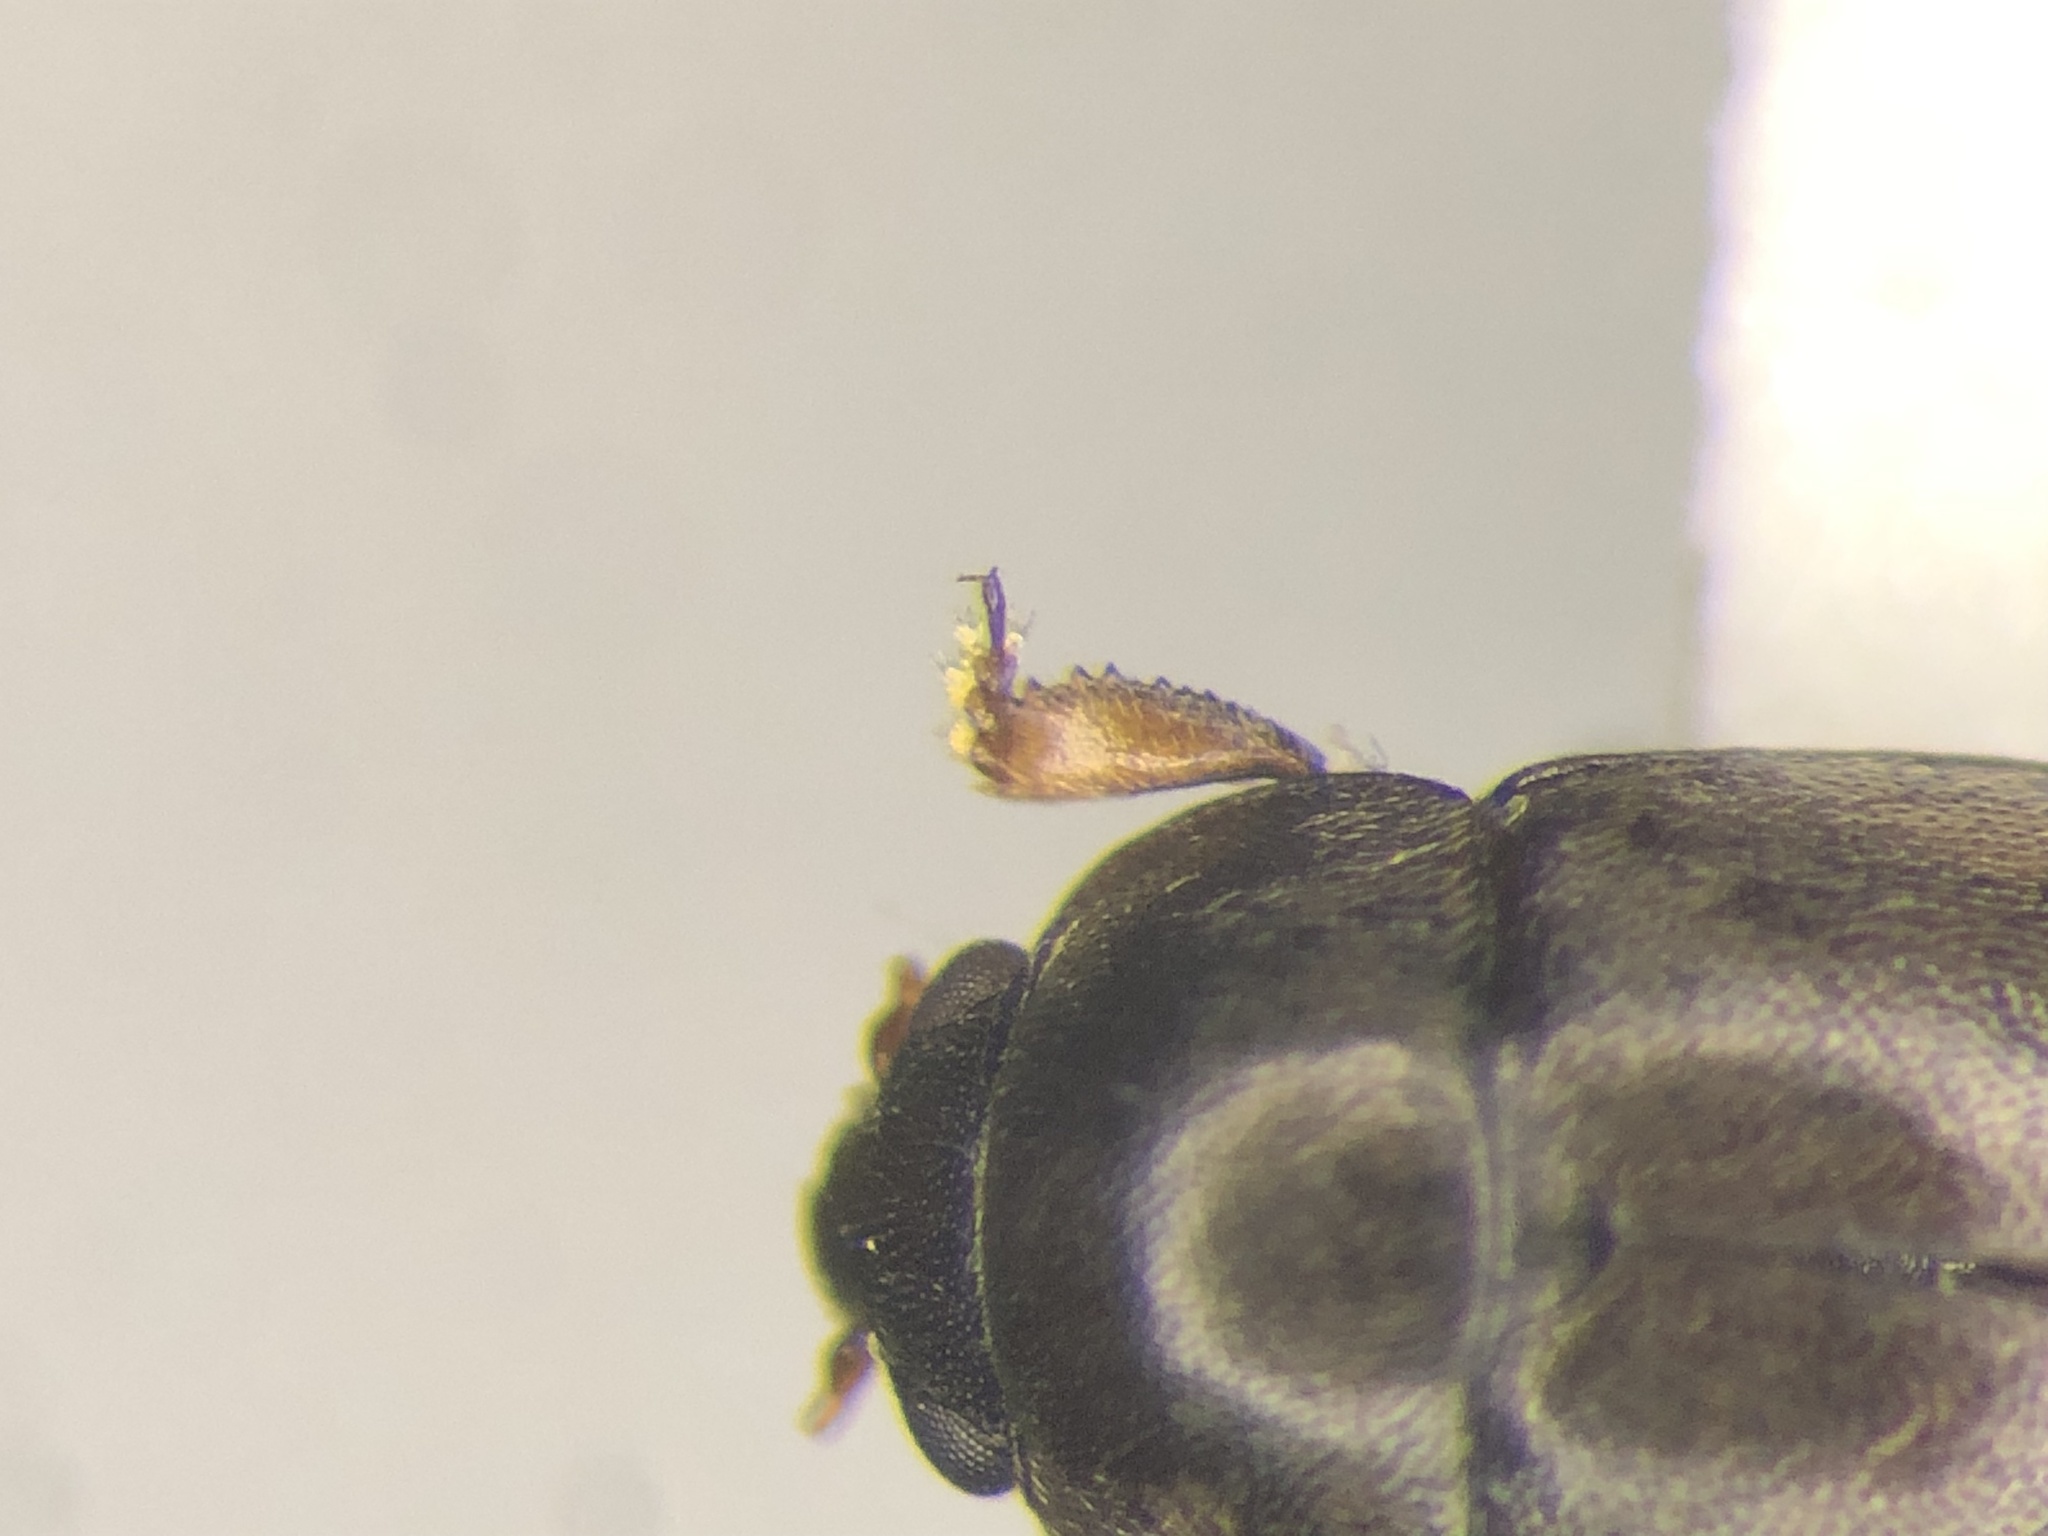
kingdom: Animalia
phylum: Arthropoda
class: Insecta
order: Coleoptera
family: Nitidulidae
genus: Meligethes
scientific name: Meligethes nigrescens
